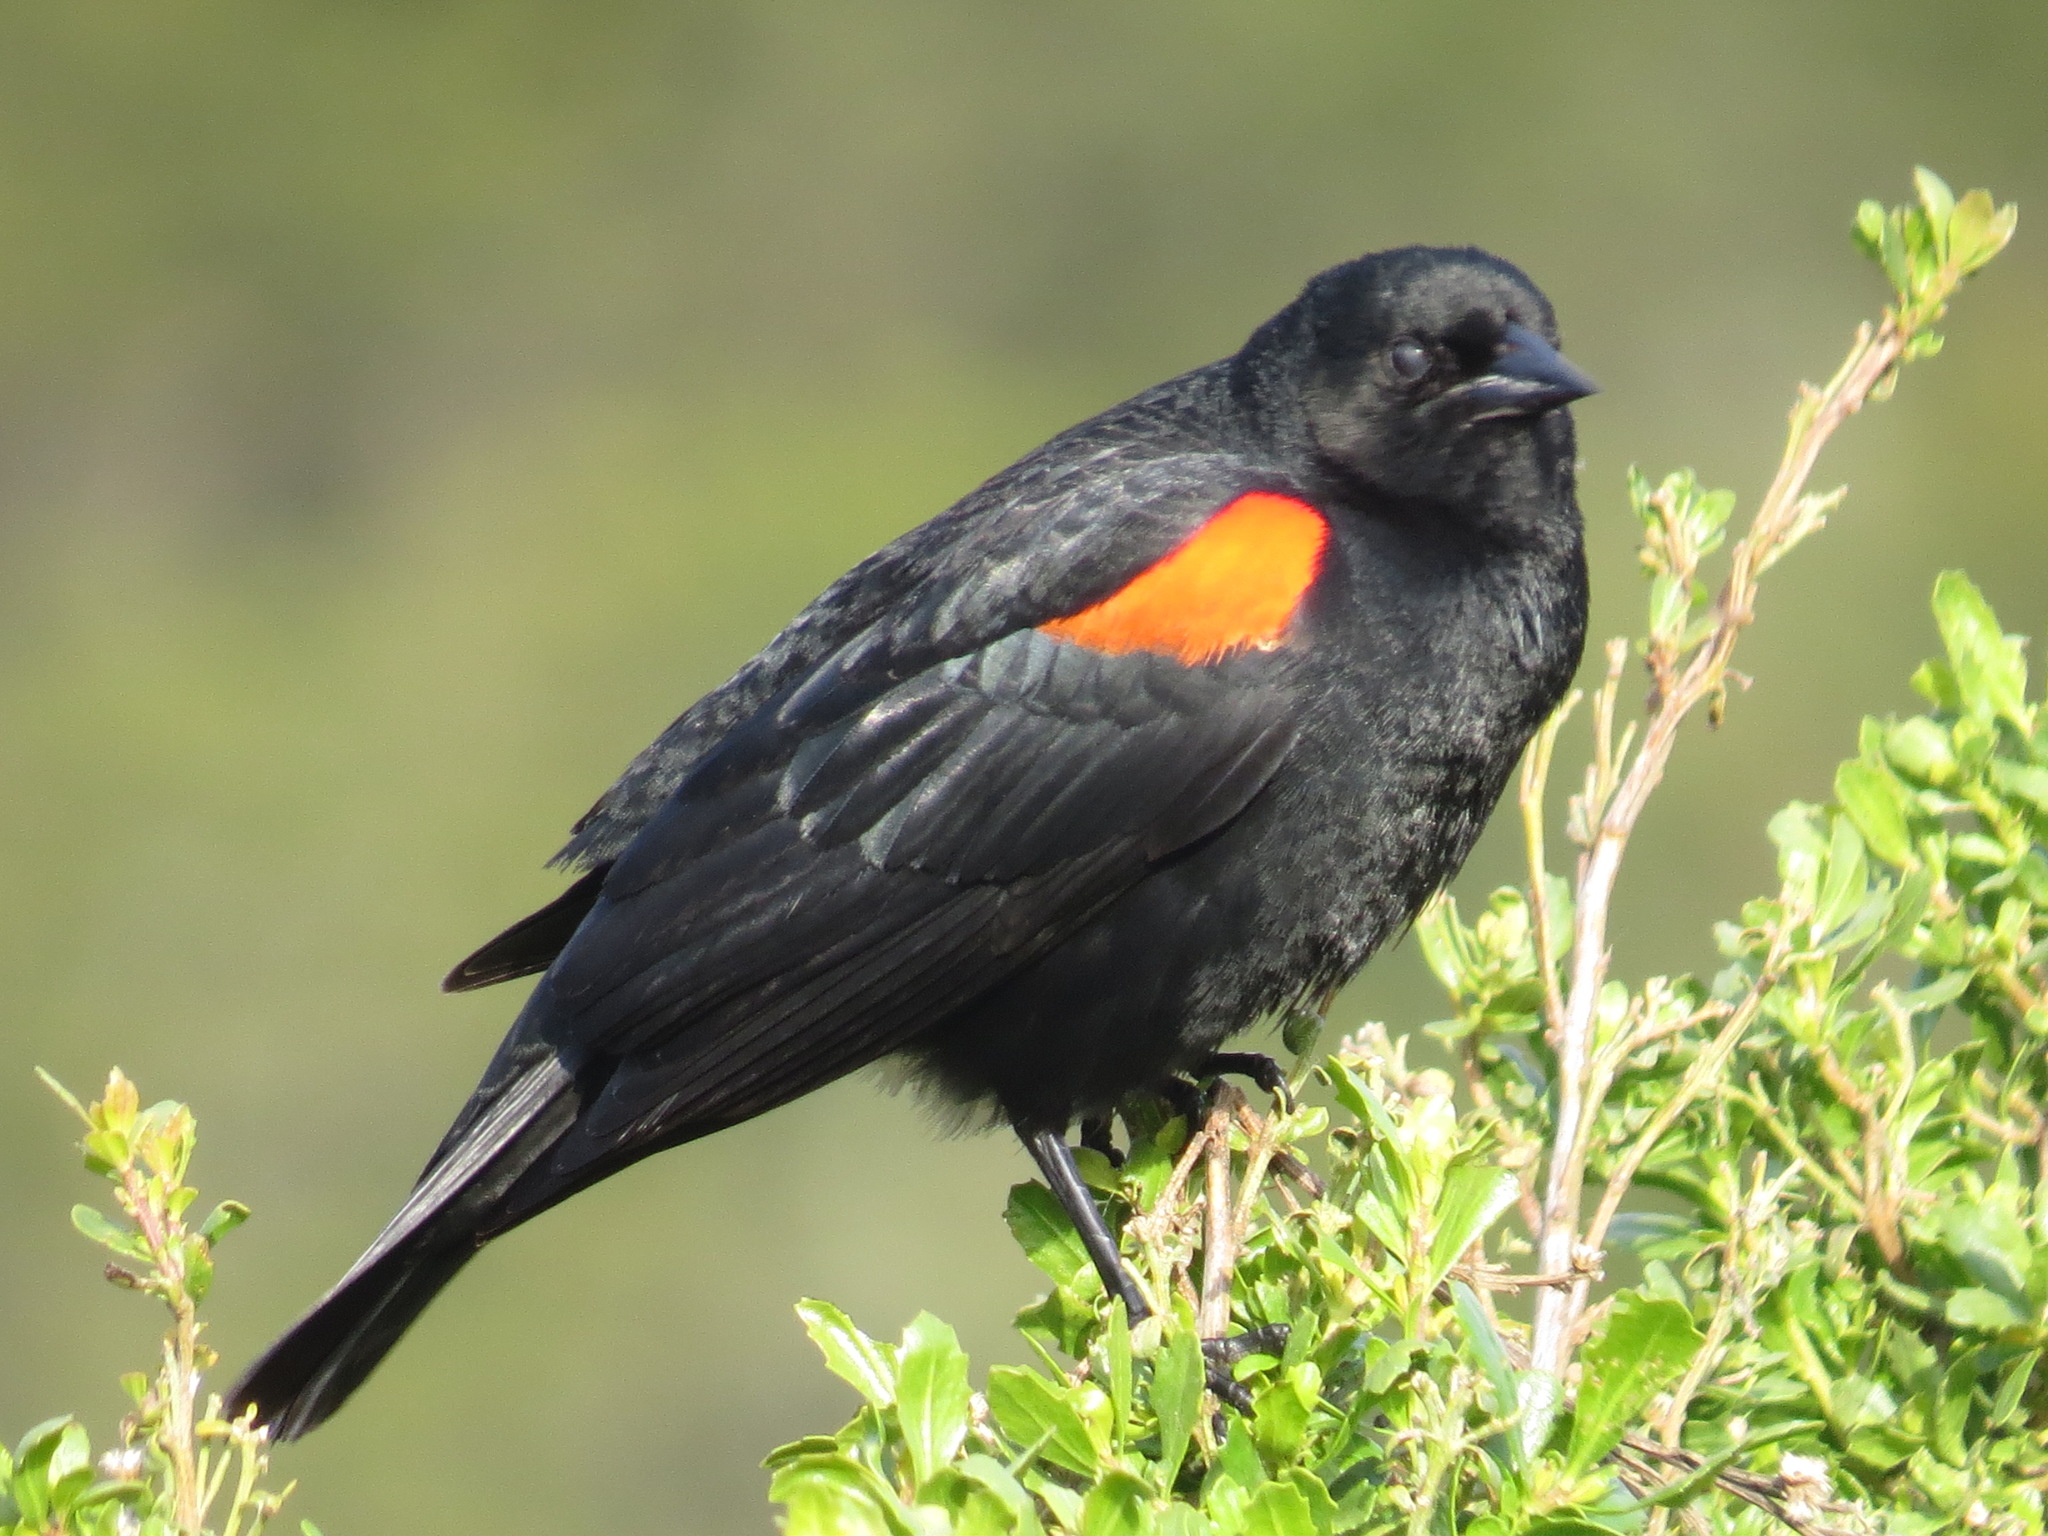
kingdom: Animalia
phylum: Chordata
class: Aves
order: Passeriformes
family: Icteridae
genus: Agelaius
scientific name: Agelaius phoeniceus
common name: Red-winged blackbird
